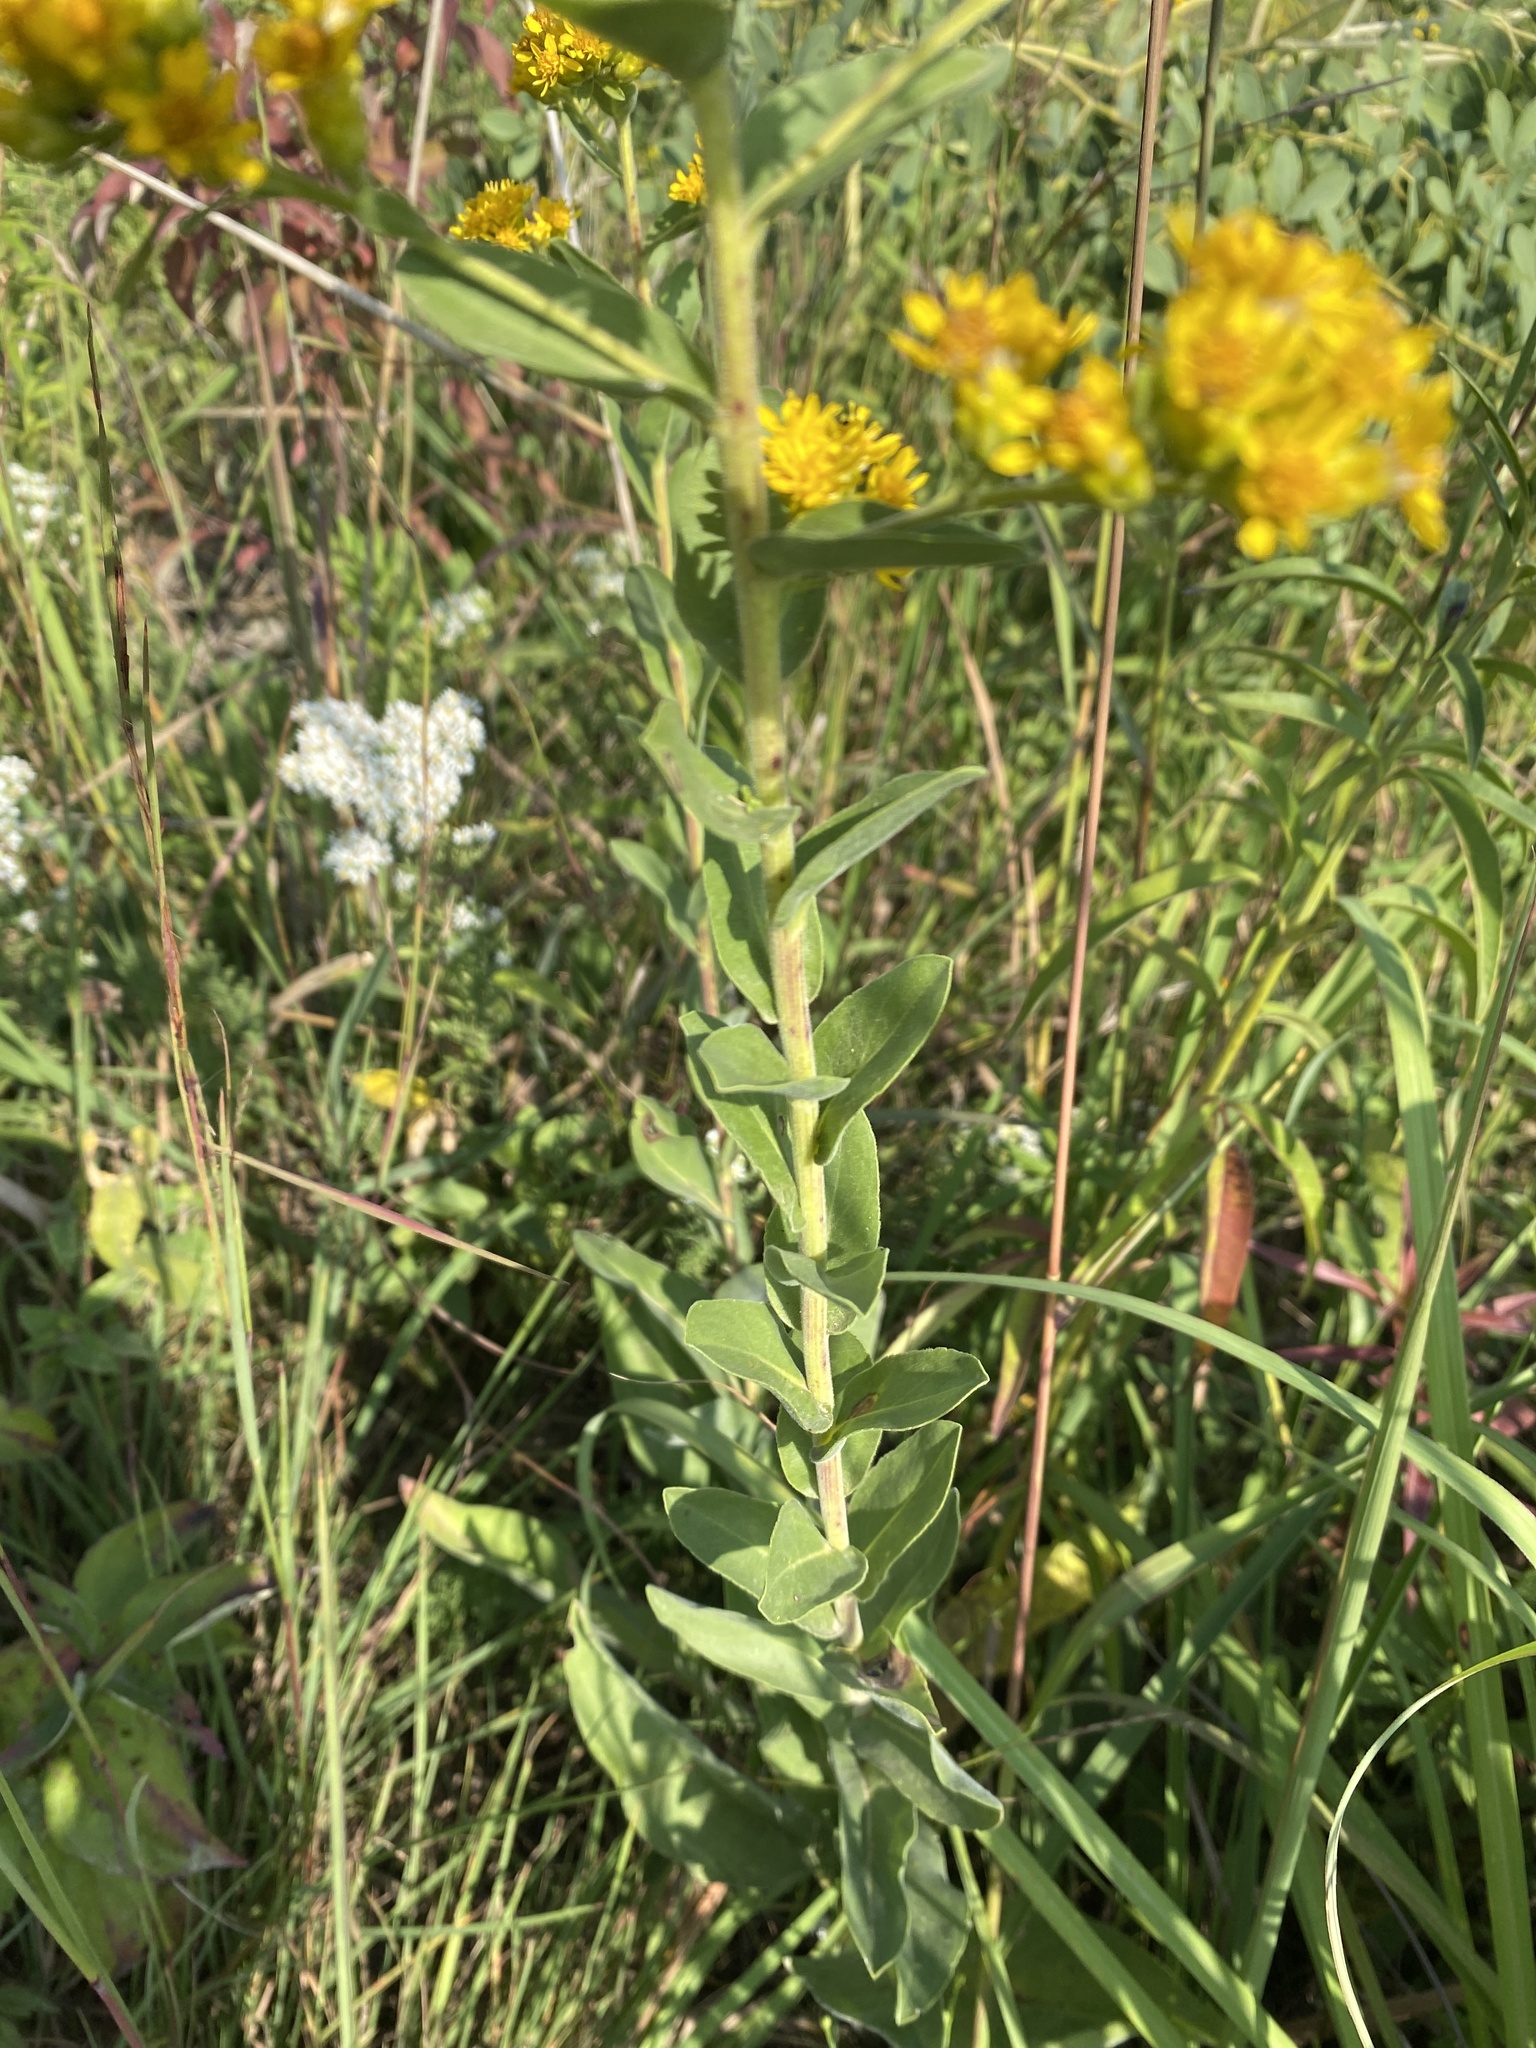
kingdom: Plantae
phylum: Tracheophyta
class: Magnoliopsida
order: Asterales
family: Asteraceae
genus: Solidago
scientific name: Solidago rigida
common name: Rigid goldenrod
